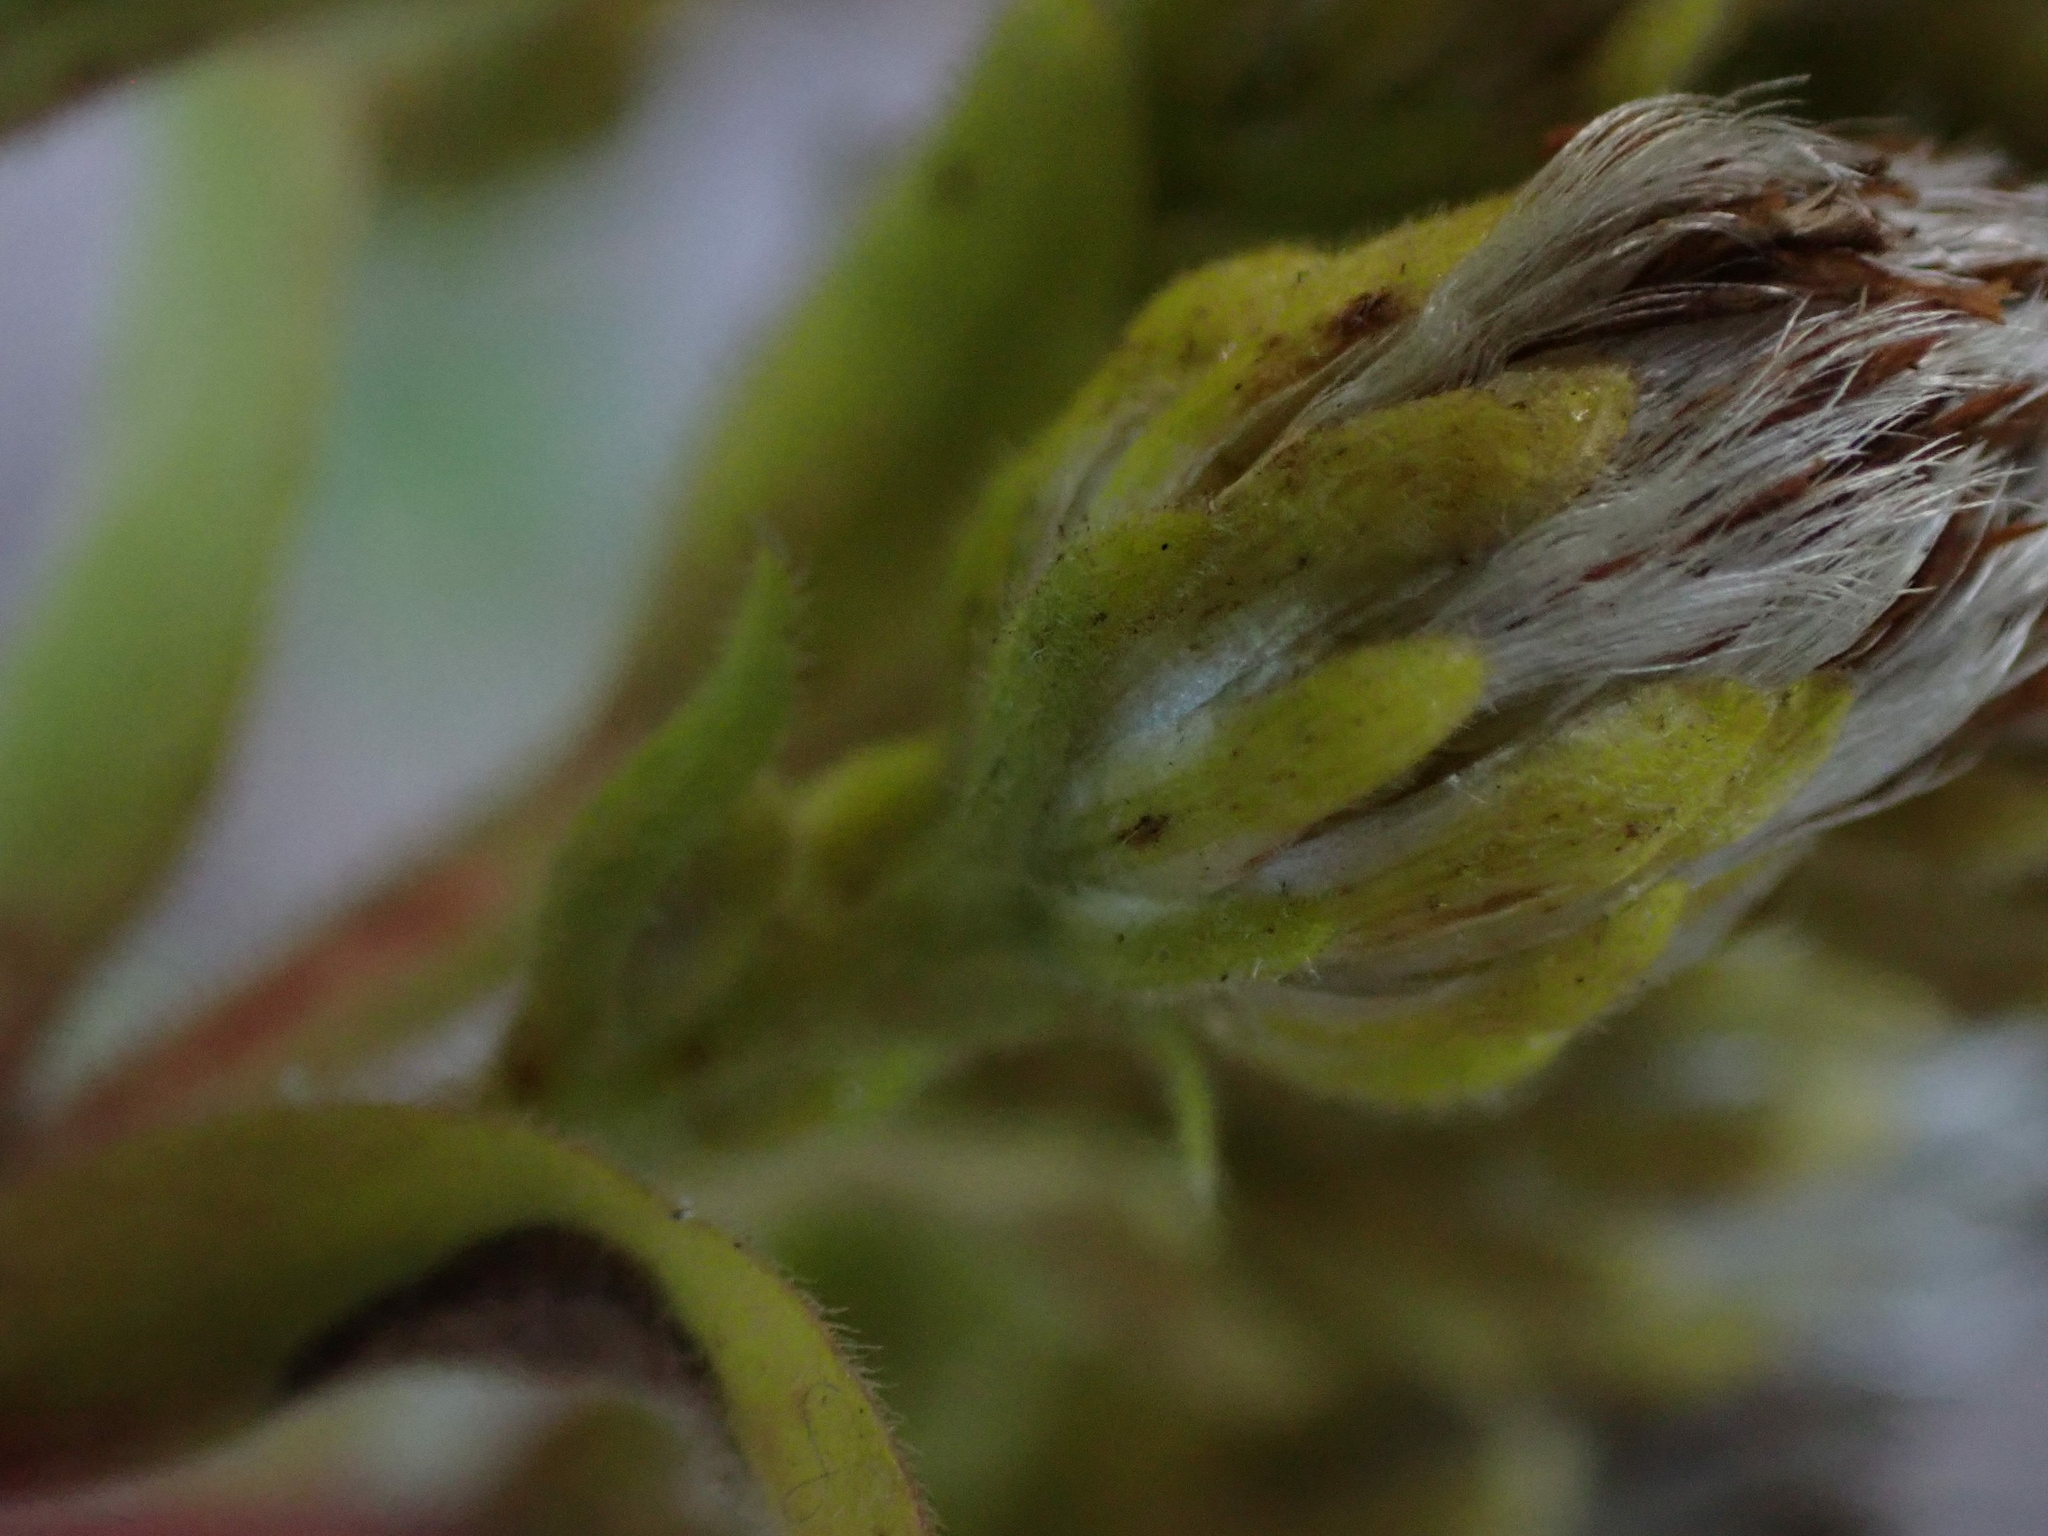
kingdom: Plantae
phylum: Tracheophyta
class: Magnoliopsida
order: Asterales
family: Asteraceae
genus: Solidago
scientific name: Solidago rigida
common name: Rigid goldenrod
